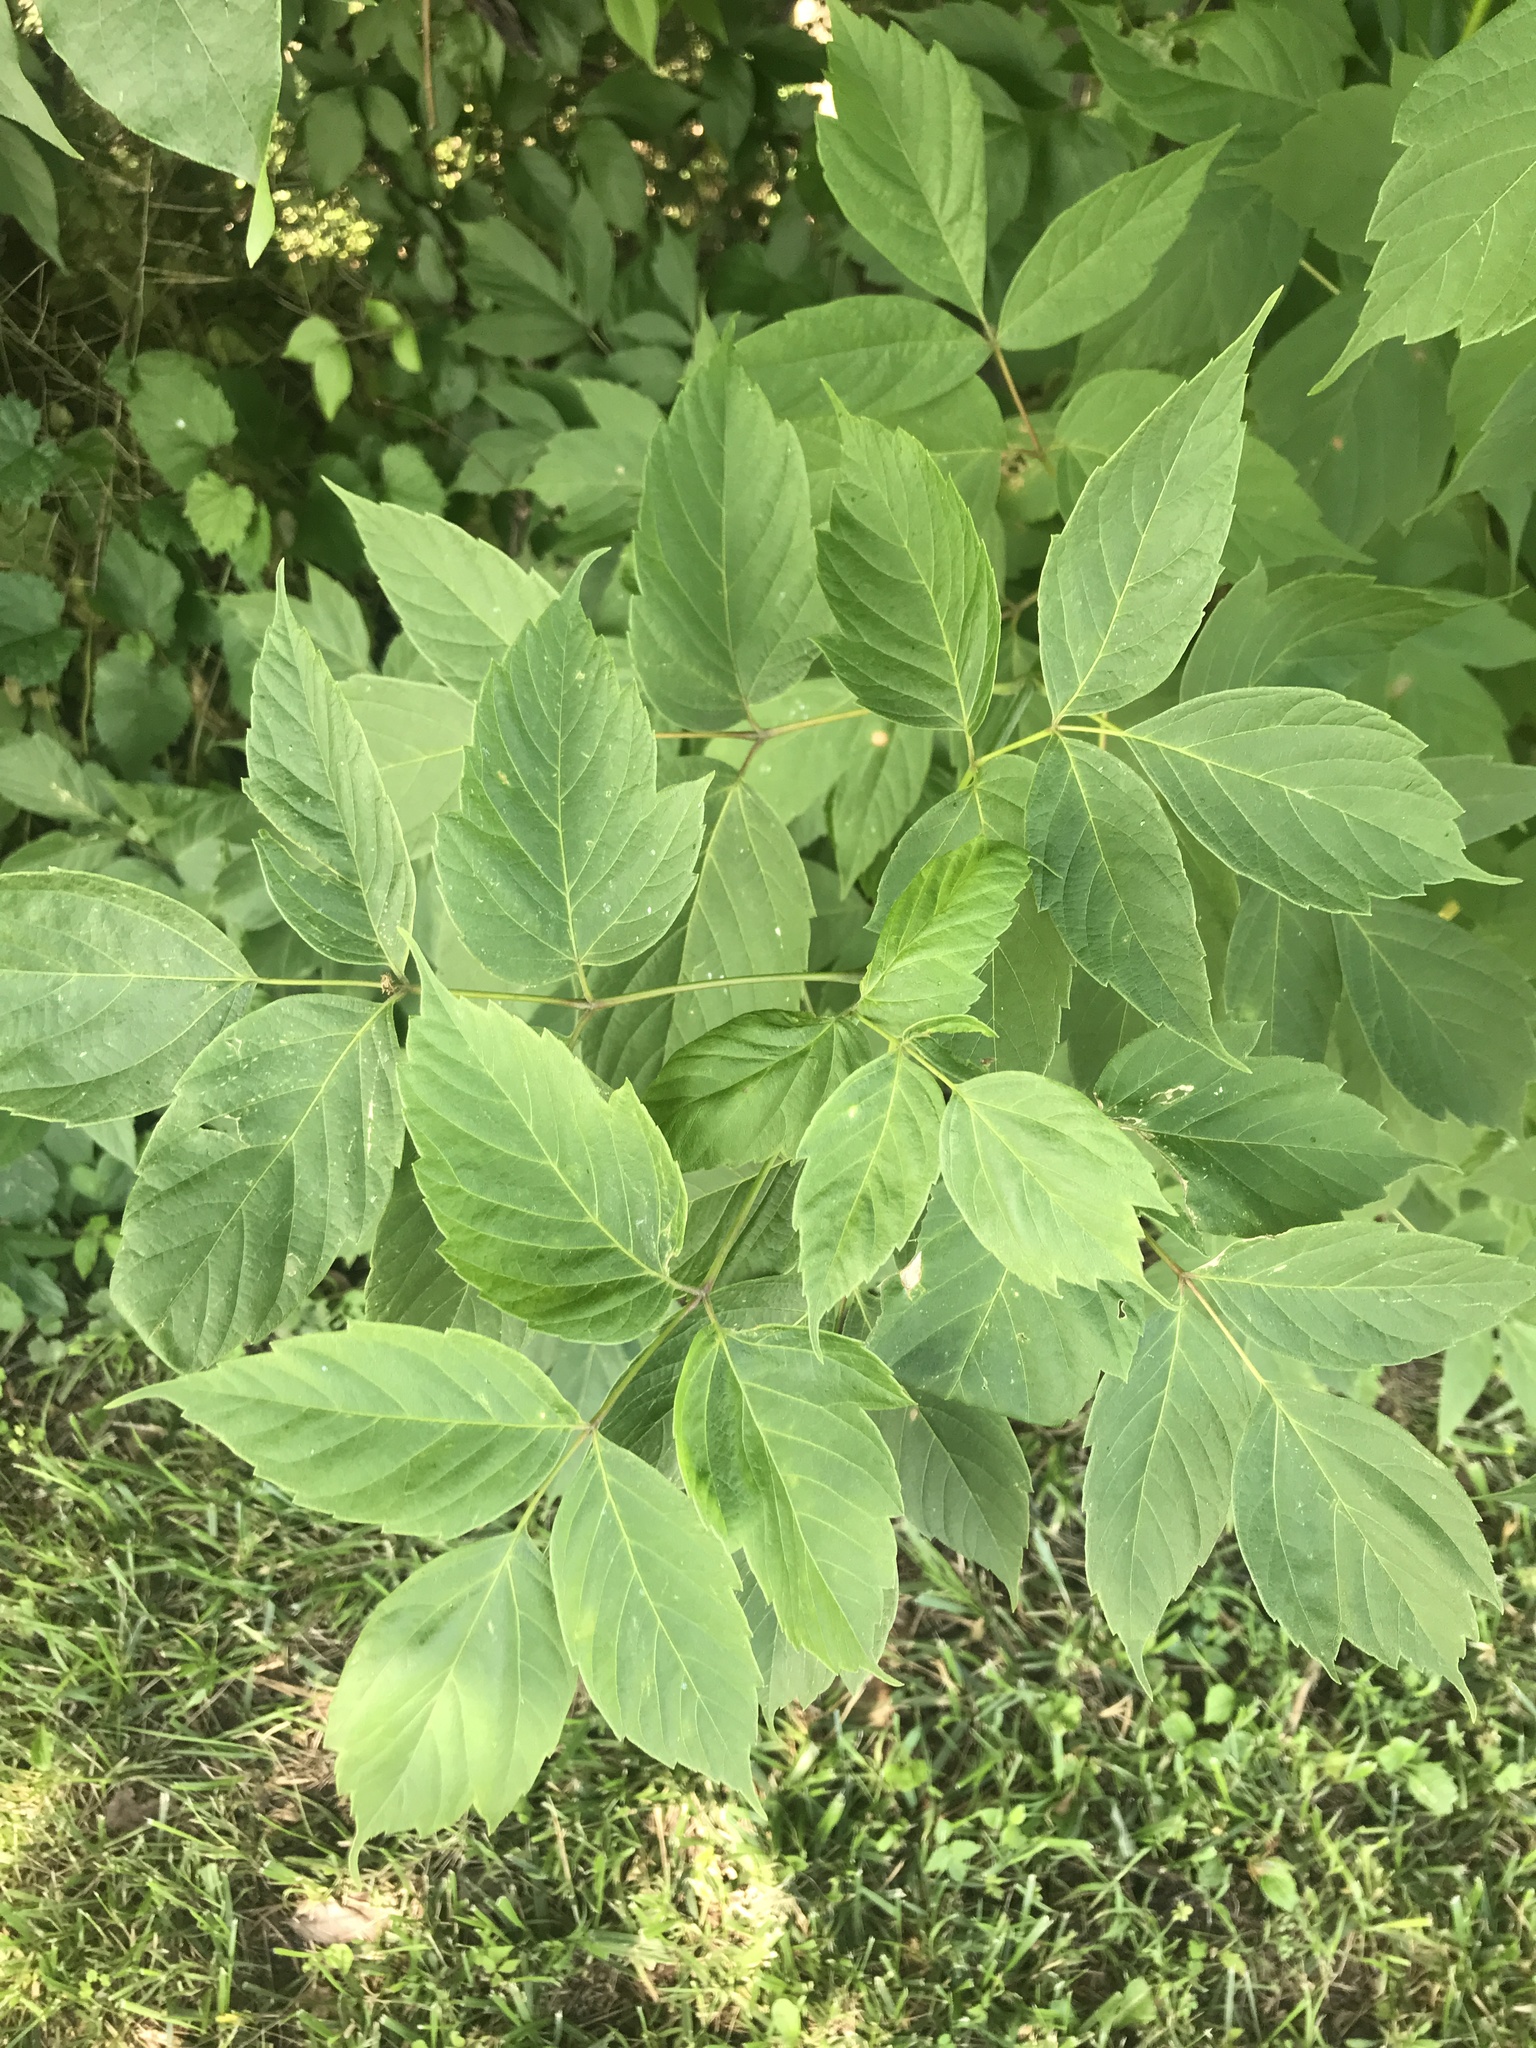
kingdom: Plantae
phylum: Tracheophyta
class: Magnoliopsida
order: Sapindales
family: Sapindaceae
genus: Acer
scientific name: Acer negundo
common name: Ashleaf maple
